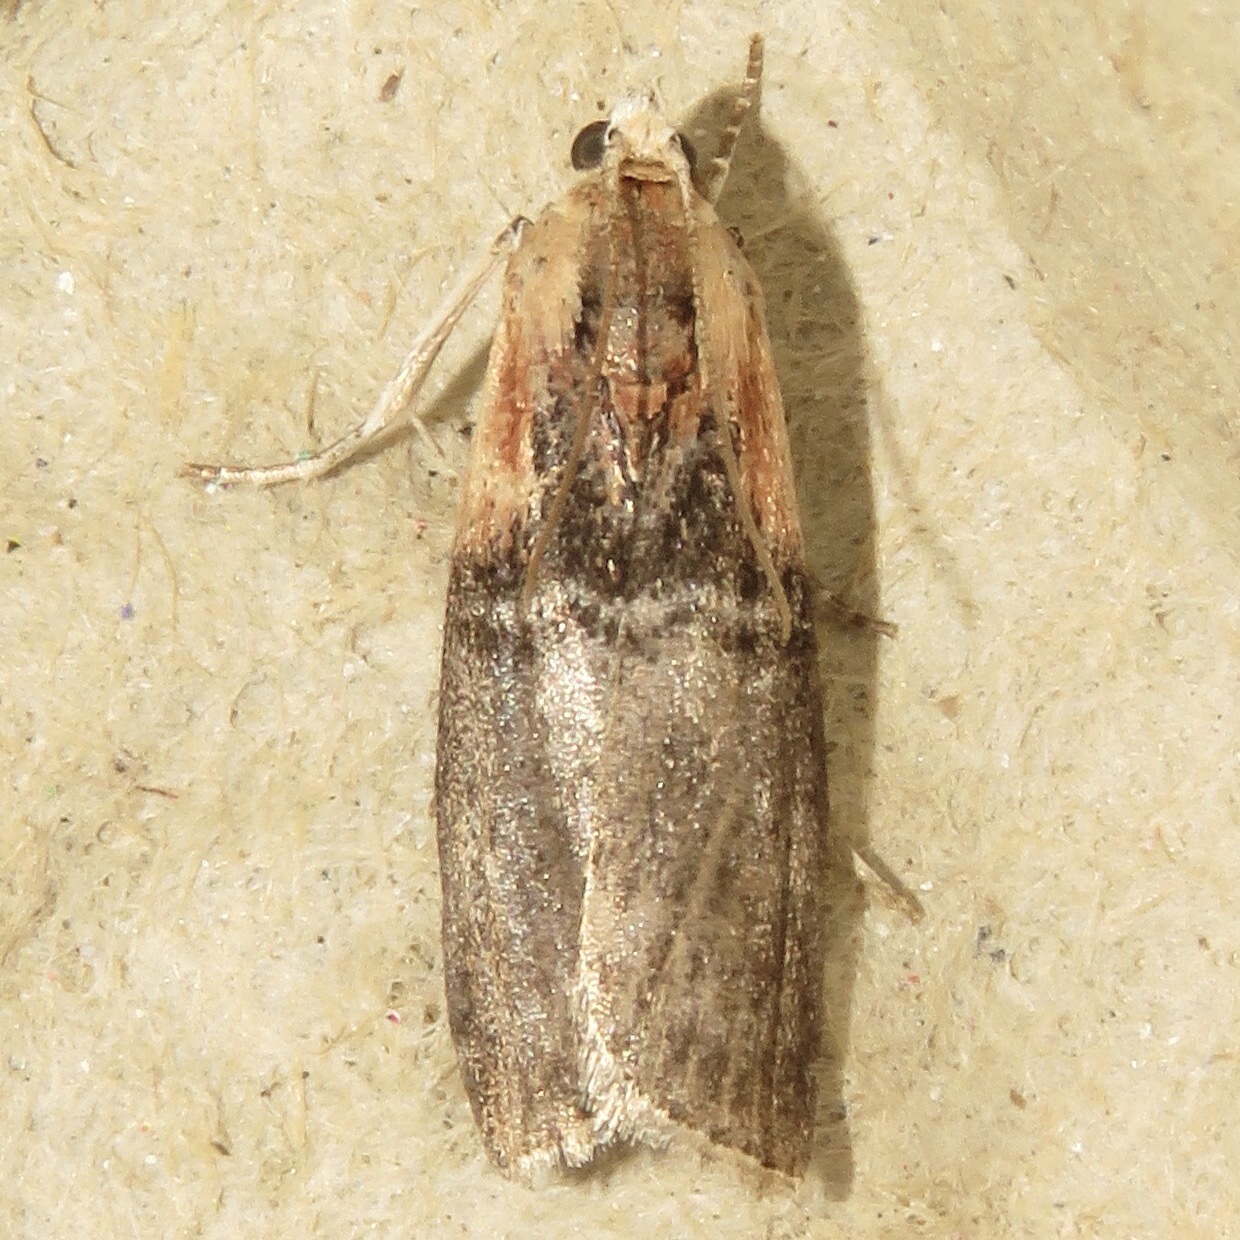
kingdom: Animalia
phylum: Arthropoda
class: Insecta
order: Lepidoptera
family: Pyralidae
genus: Sciota
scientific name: Sciota basilaris
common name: Yellow-shouldered leafroller
